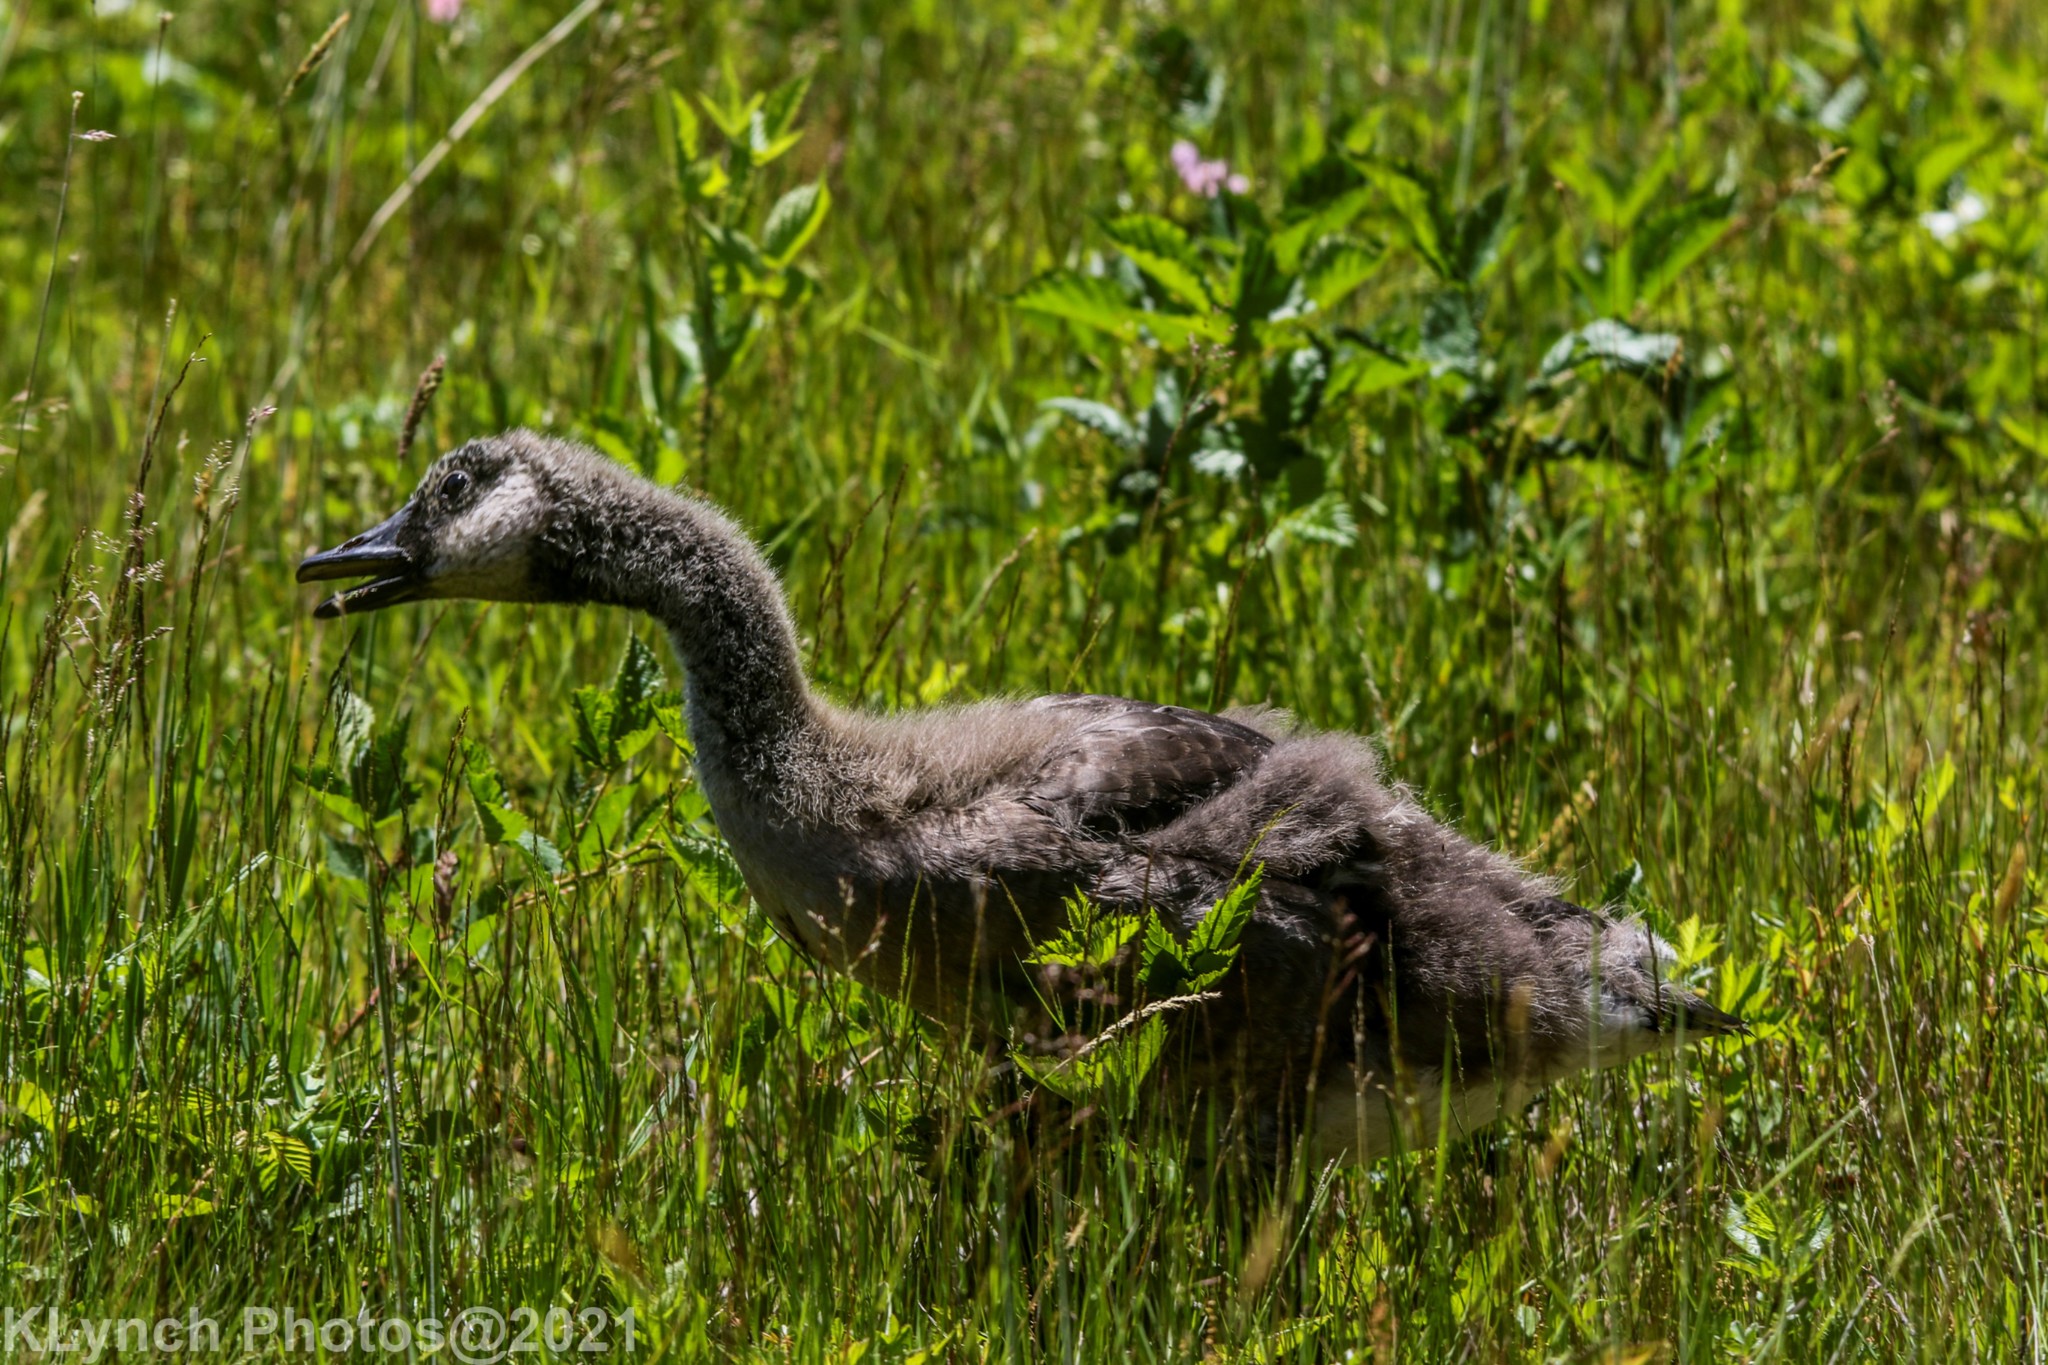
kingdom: Animalia
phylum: Chordata
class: Aves
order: Anseriformes
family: Anatidae
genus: Branta
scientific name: Branta canadensis
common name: Canada goose
